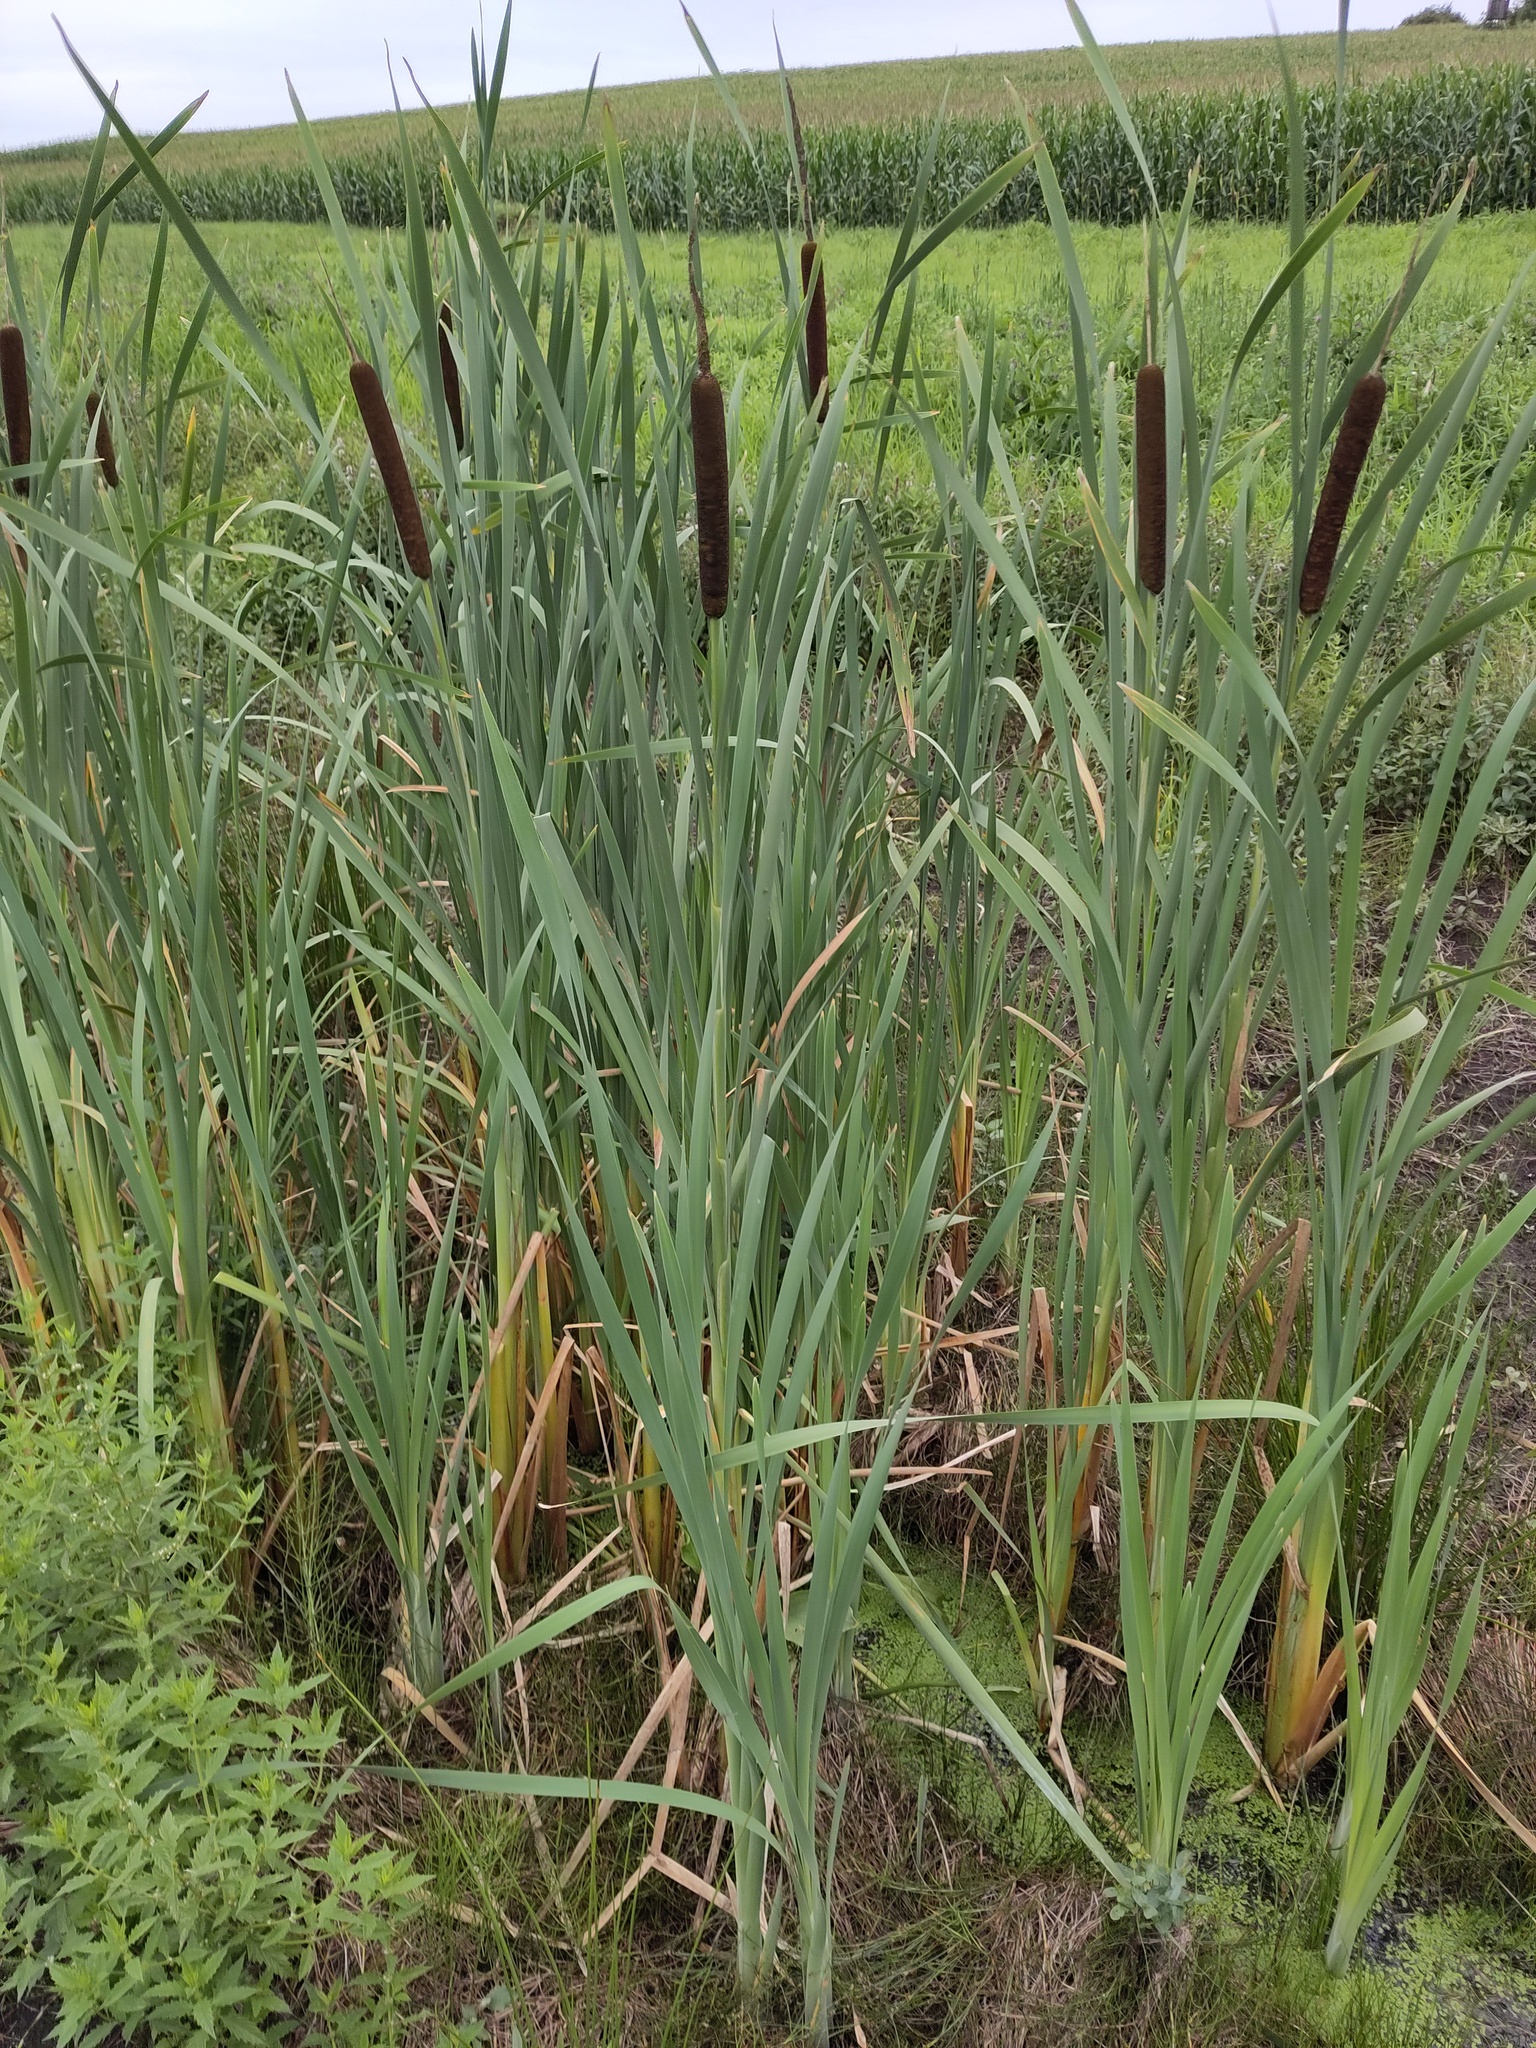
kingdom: Plantae
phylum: Tracheophyta
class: Liliopsida
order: Poales
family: Typhaceae
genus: Typha
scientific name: Typha latifolia
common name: Broadleaf cattail
